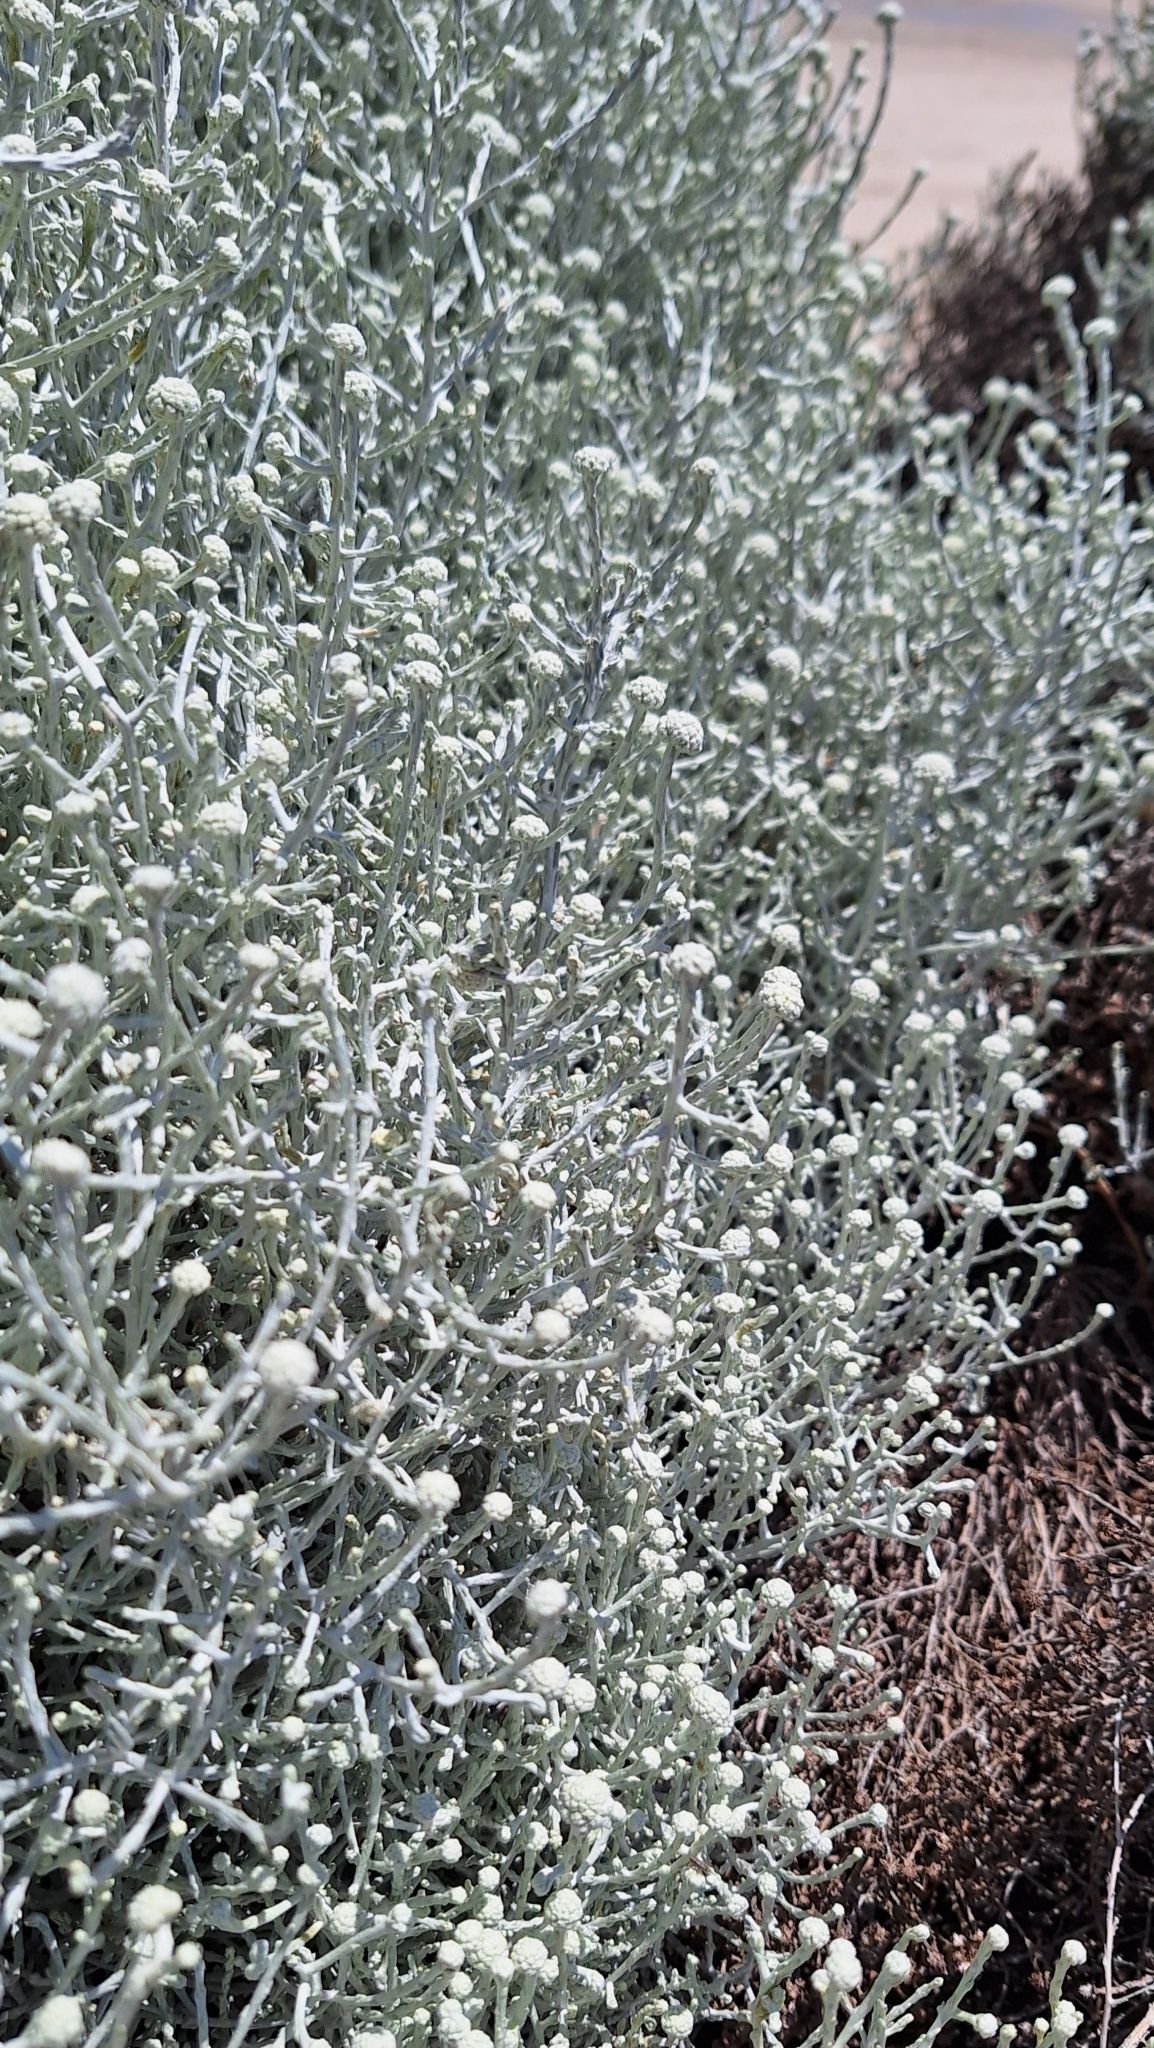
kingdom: Plantae
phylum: Tracheophyta
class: Magnoliopsida
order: Asterales
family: Asteraceae
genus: Calocephalus
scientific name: Calocephalus brownii
